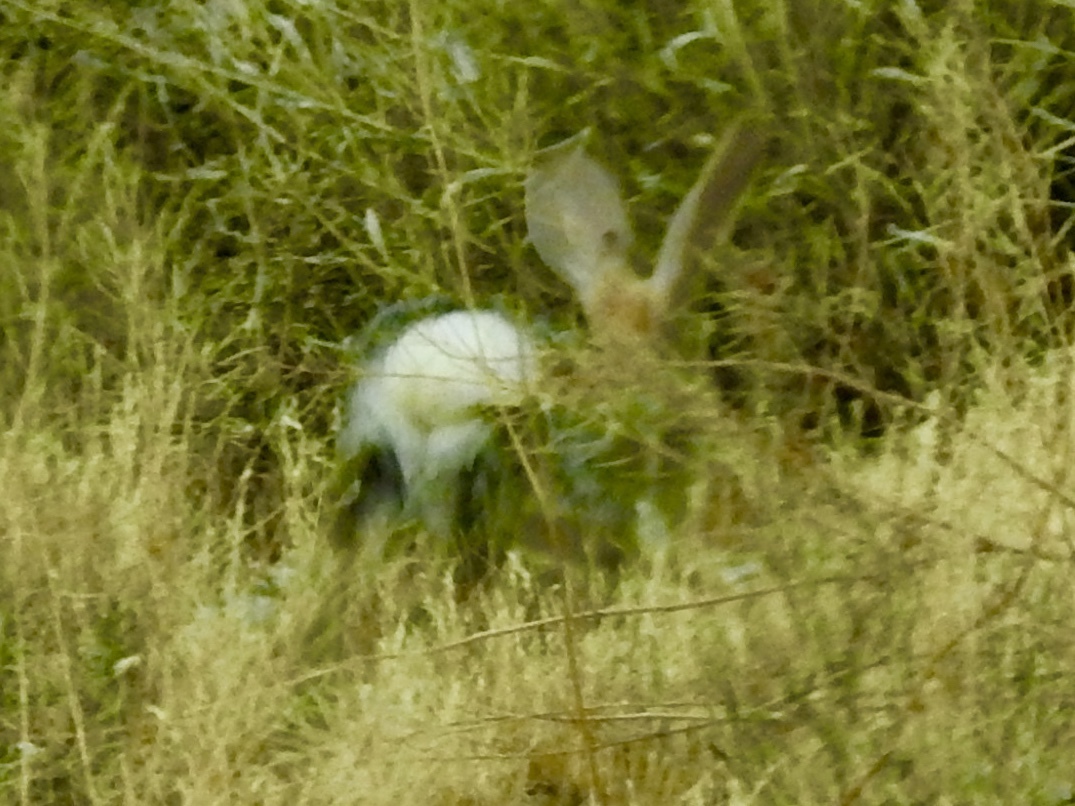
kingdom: Animalia
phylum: Chordata
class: Mammalia
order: Lagomorpha
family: Leporidae
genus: Sylvilagus
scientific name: Sylvilagus audubonii
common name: Desert cottontail
